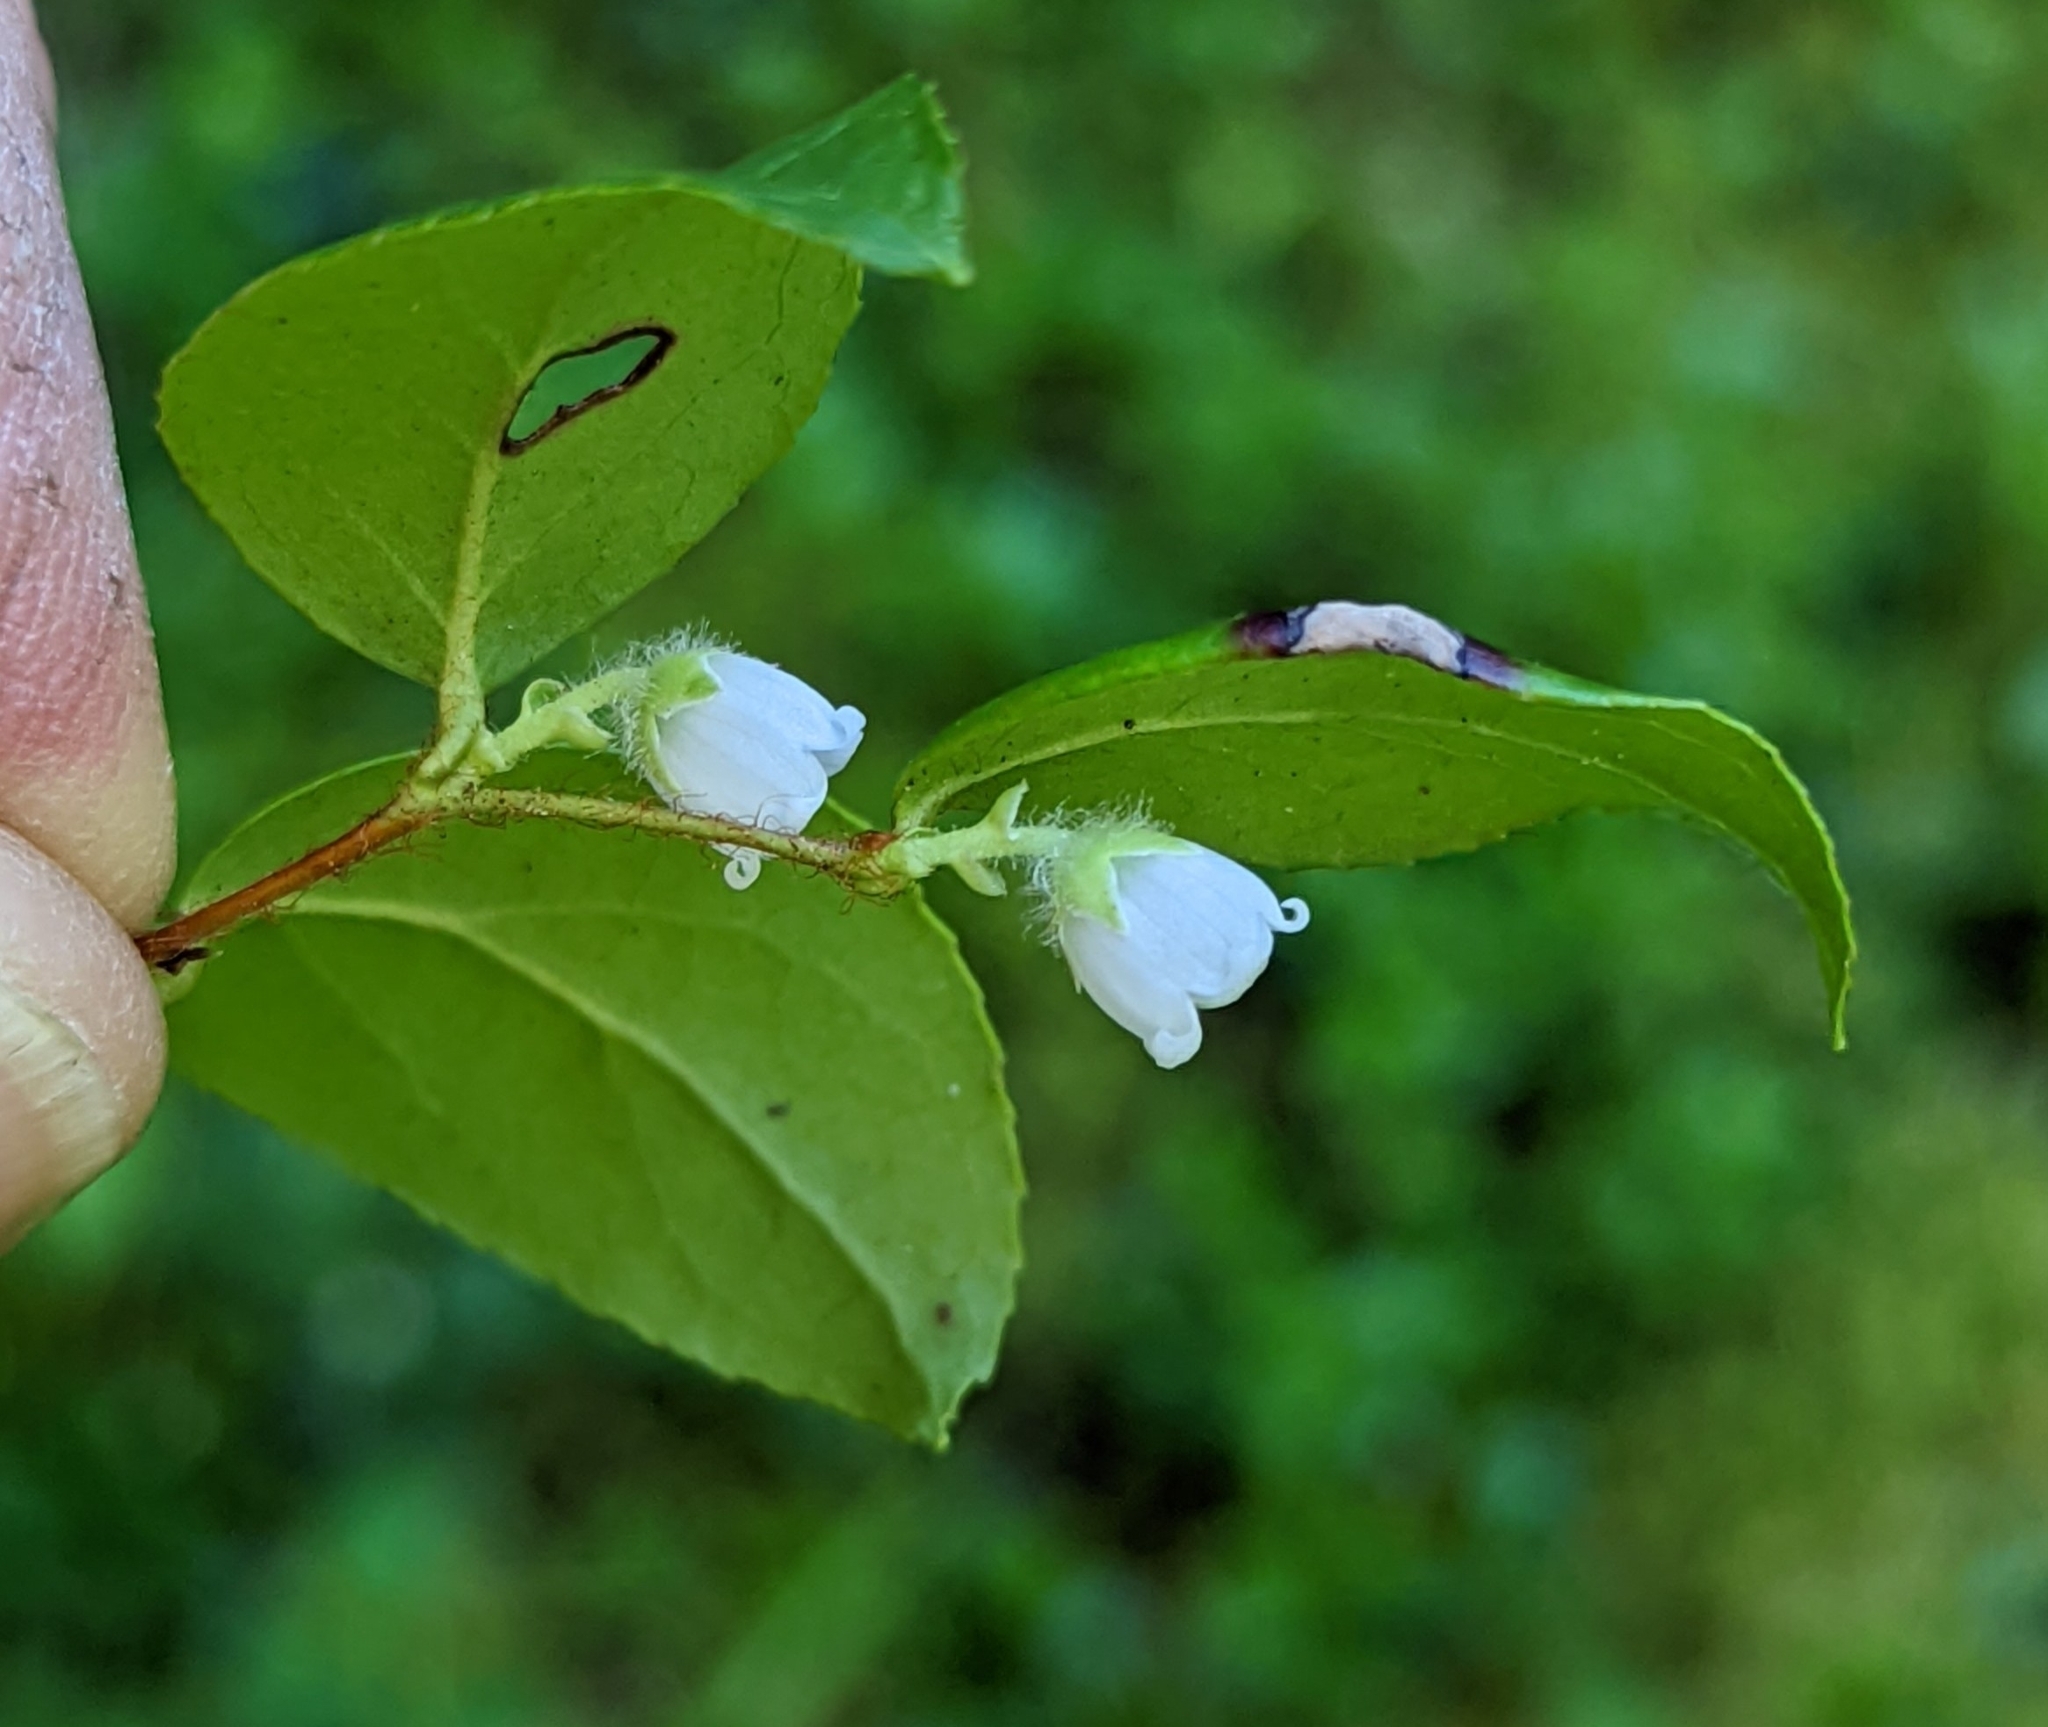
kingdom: Plantae
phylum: Tracheophyta
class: Magnoliopsida
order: Ericales
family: Ericaceae
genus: Gaultheria
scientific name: Gaultheria ovatifolia
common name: Oregon wintergreen
